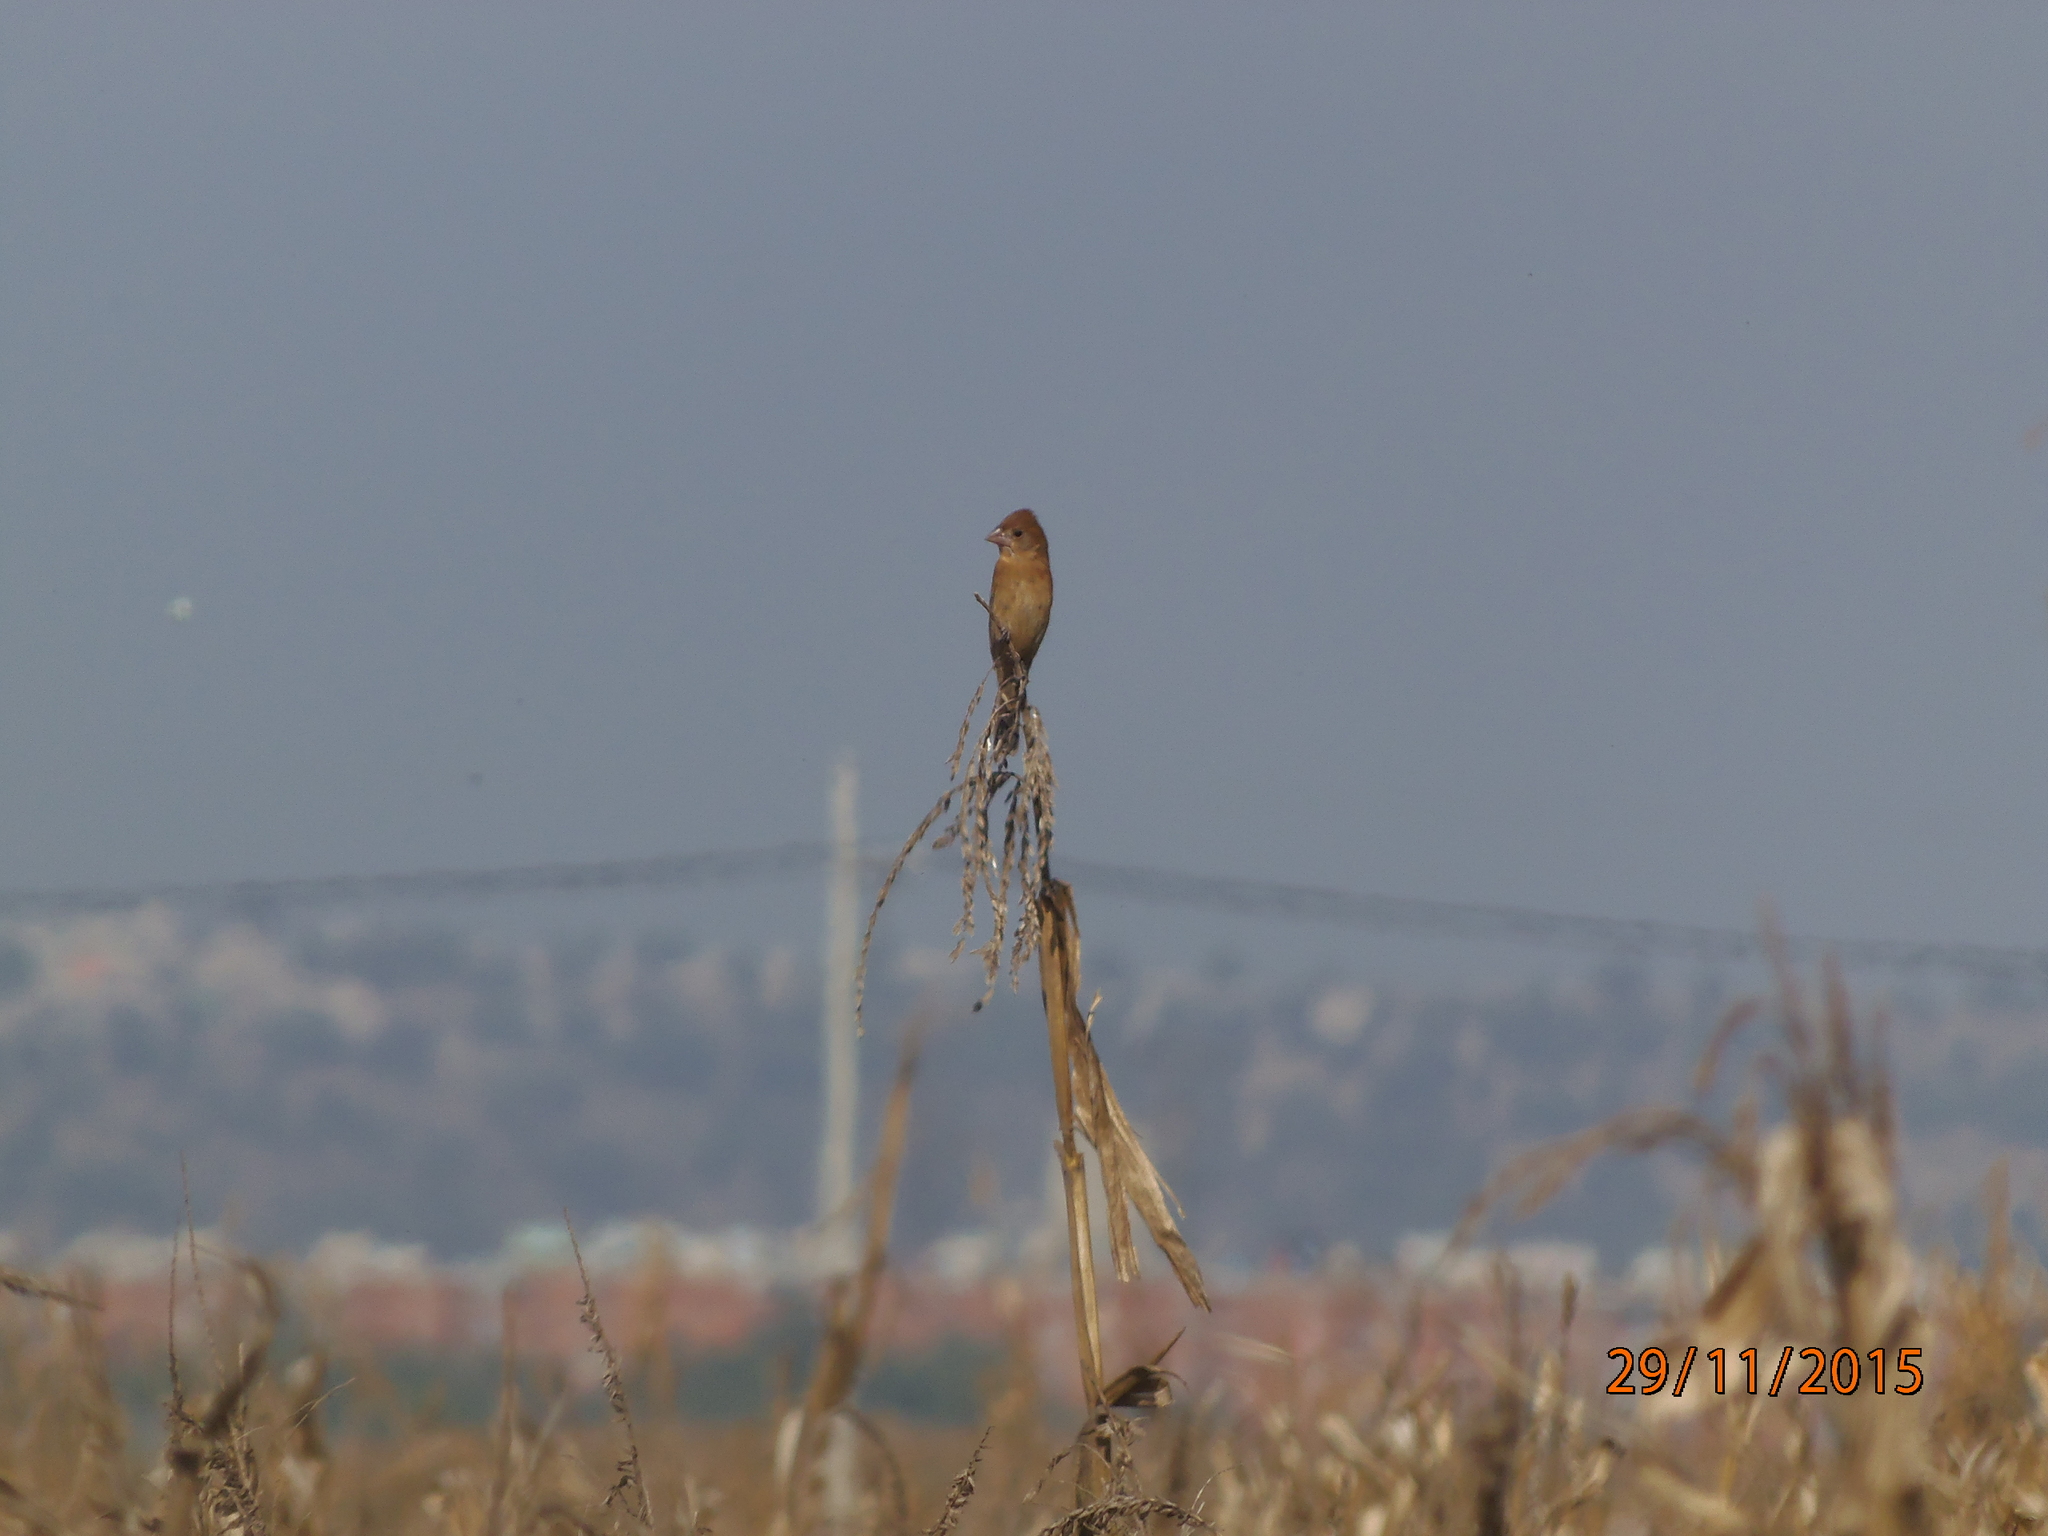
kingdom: Animalia
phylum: Chordata
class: Aves
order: Passeriformes
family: Cardinalidae
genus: Passerina
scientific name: Passerina caerulea
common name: Blue grosbeak
